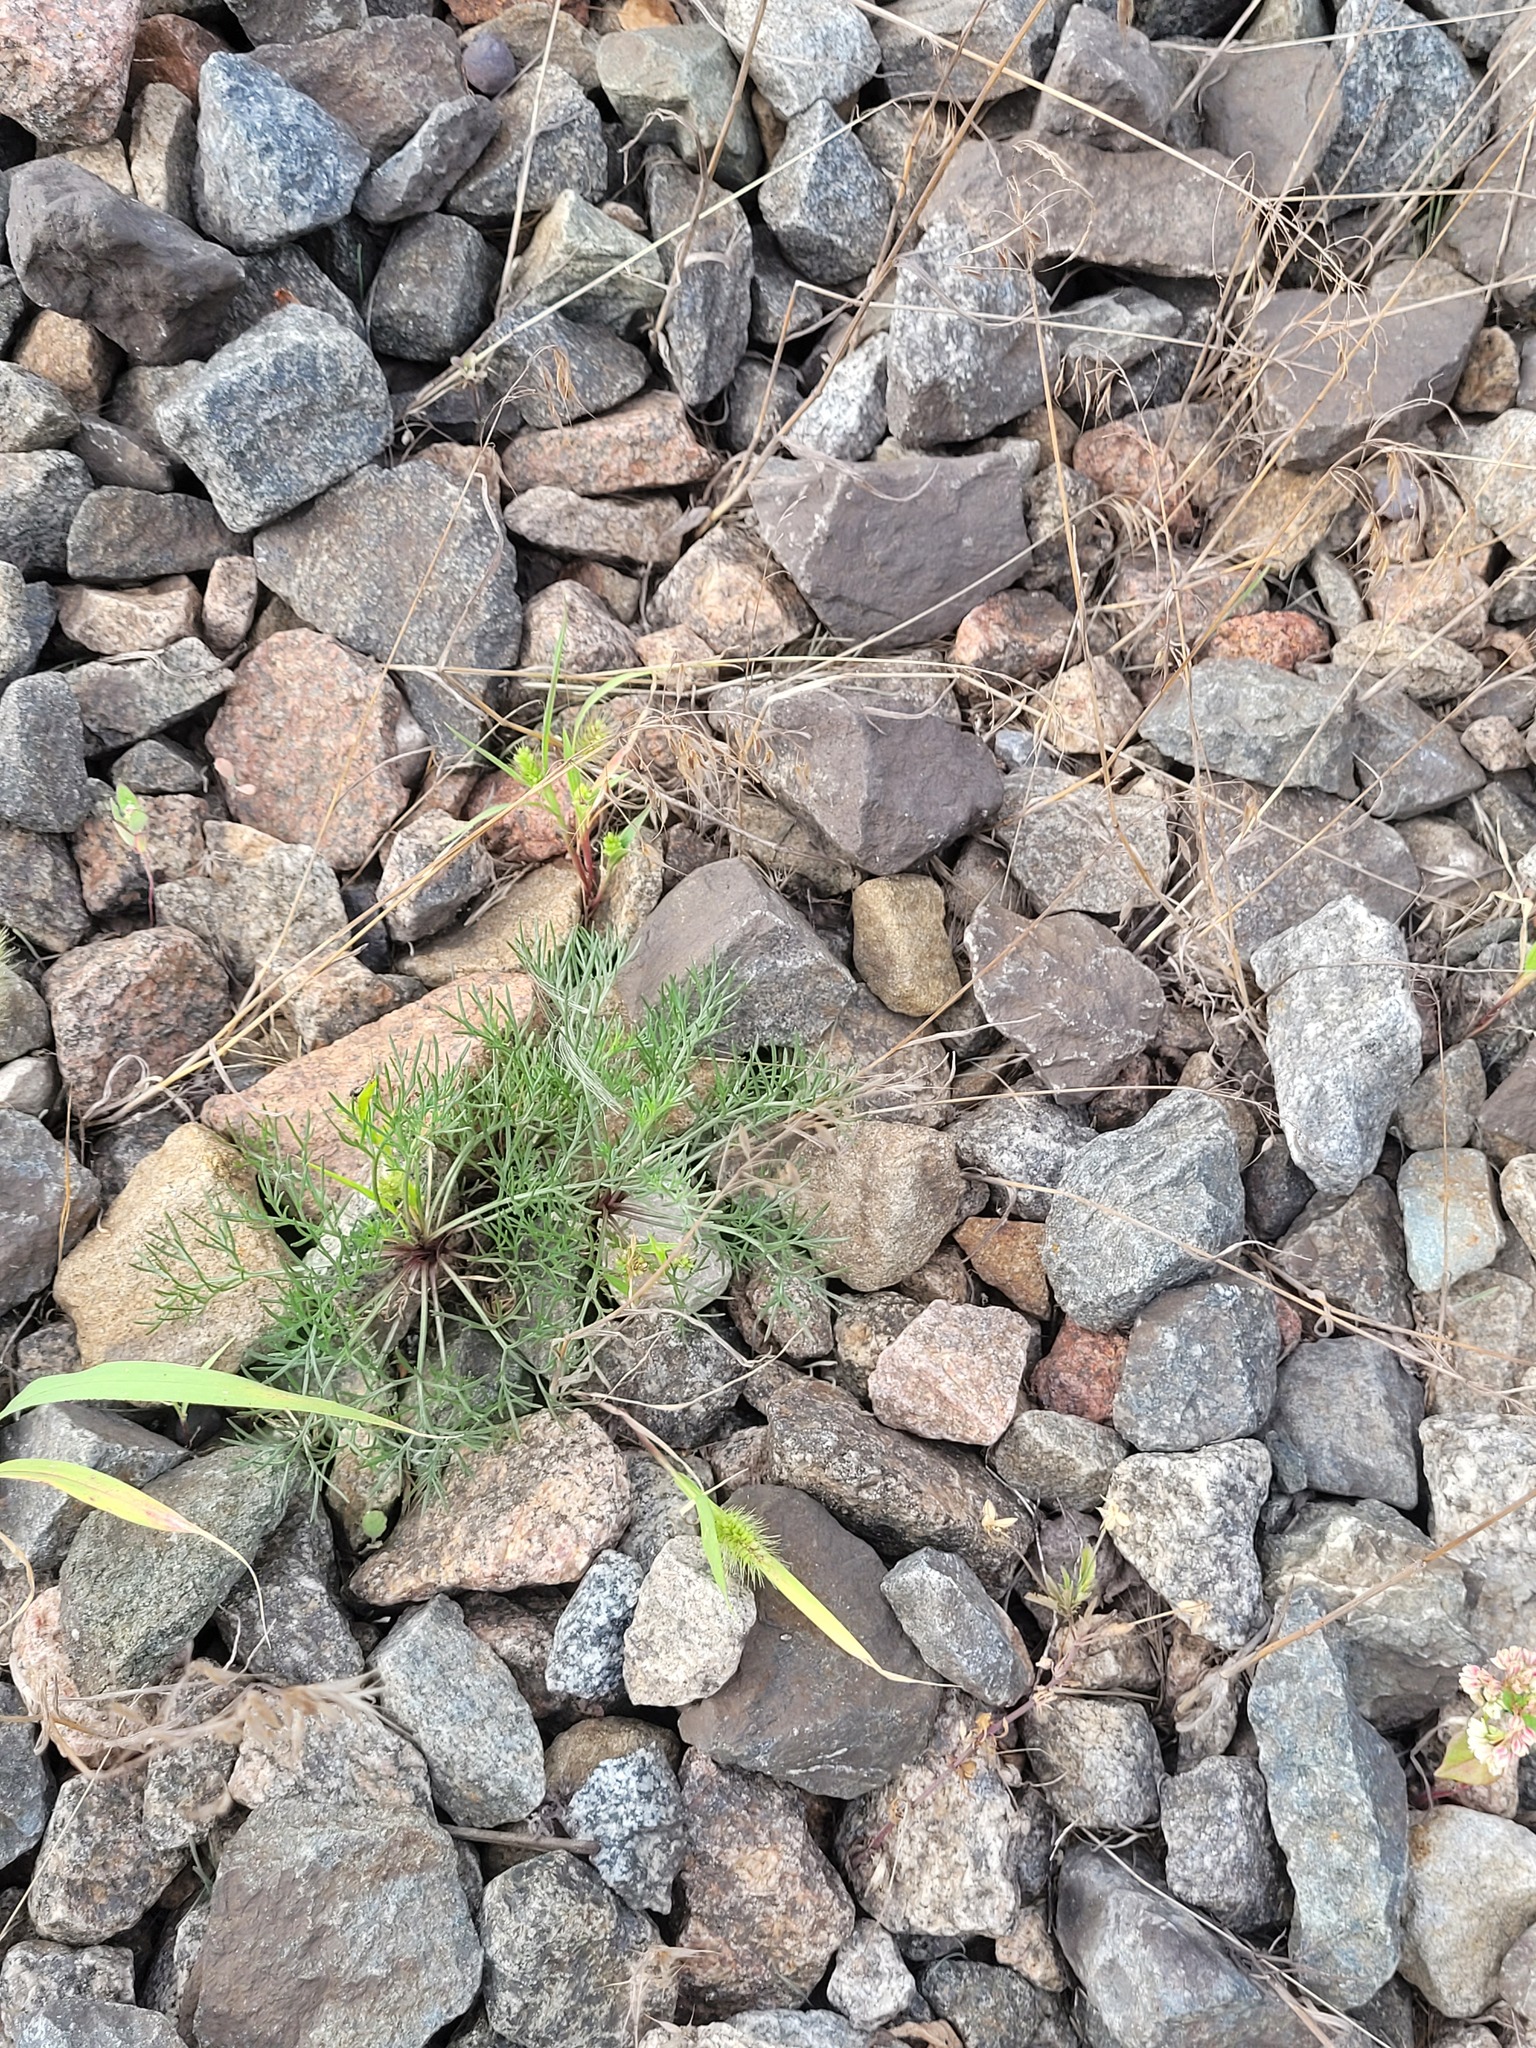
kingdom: Plantae
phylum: Tracheophyta
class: Magnoliopsida
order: Asterales
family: Asteraceae
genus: Artemisia
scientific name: Artemisia campestris
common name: Field wormwood
